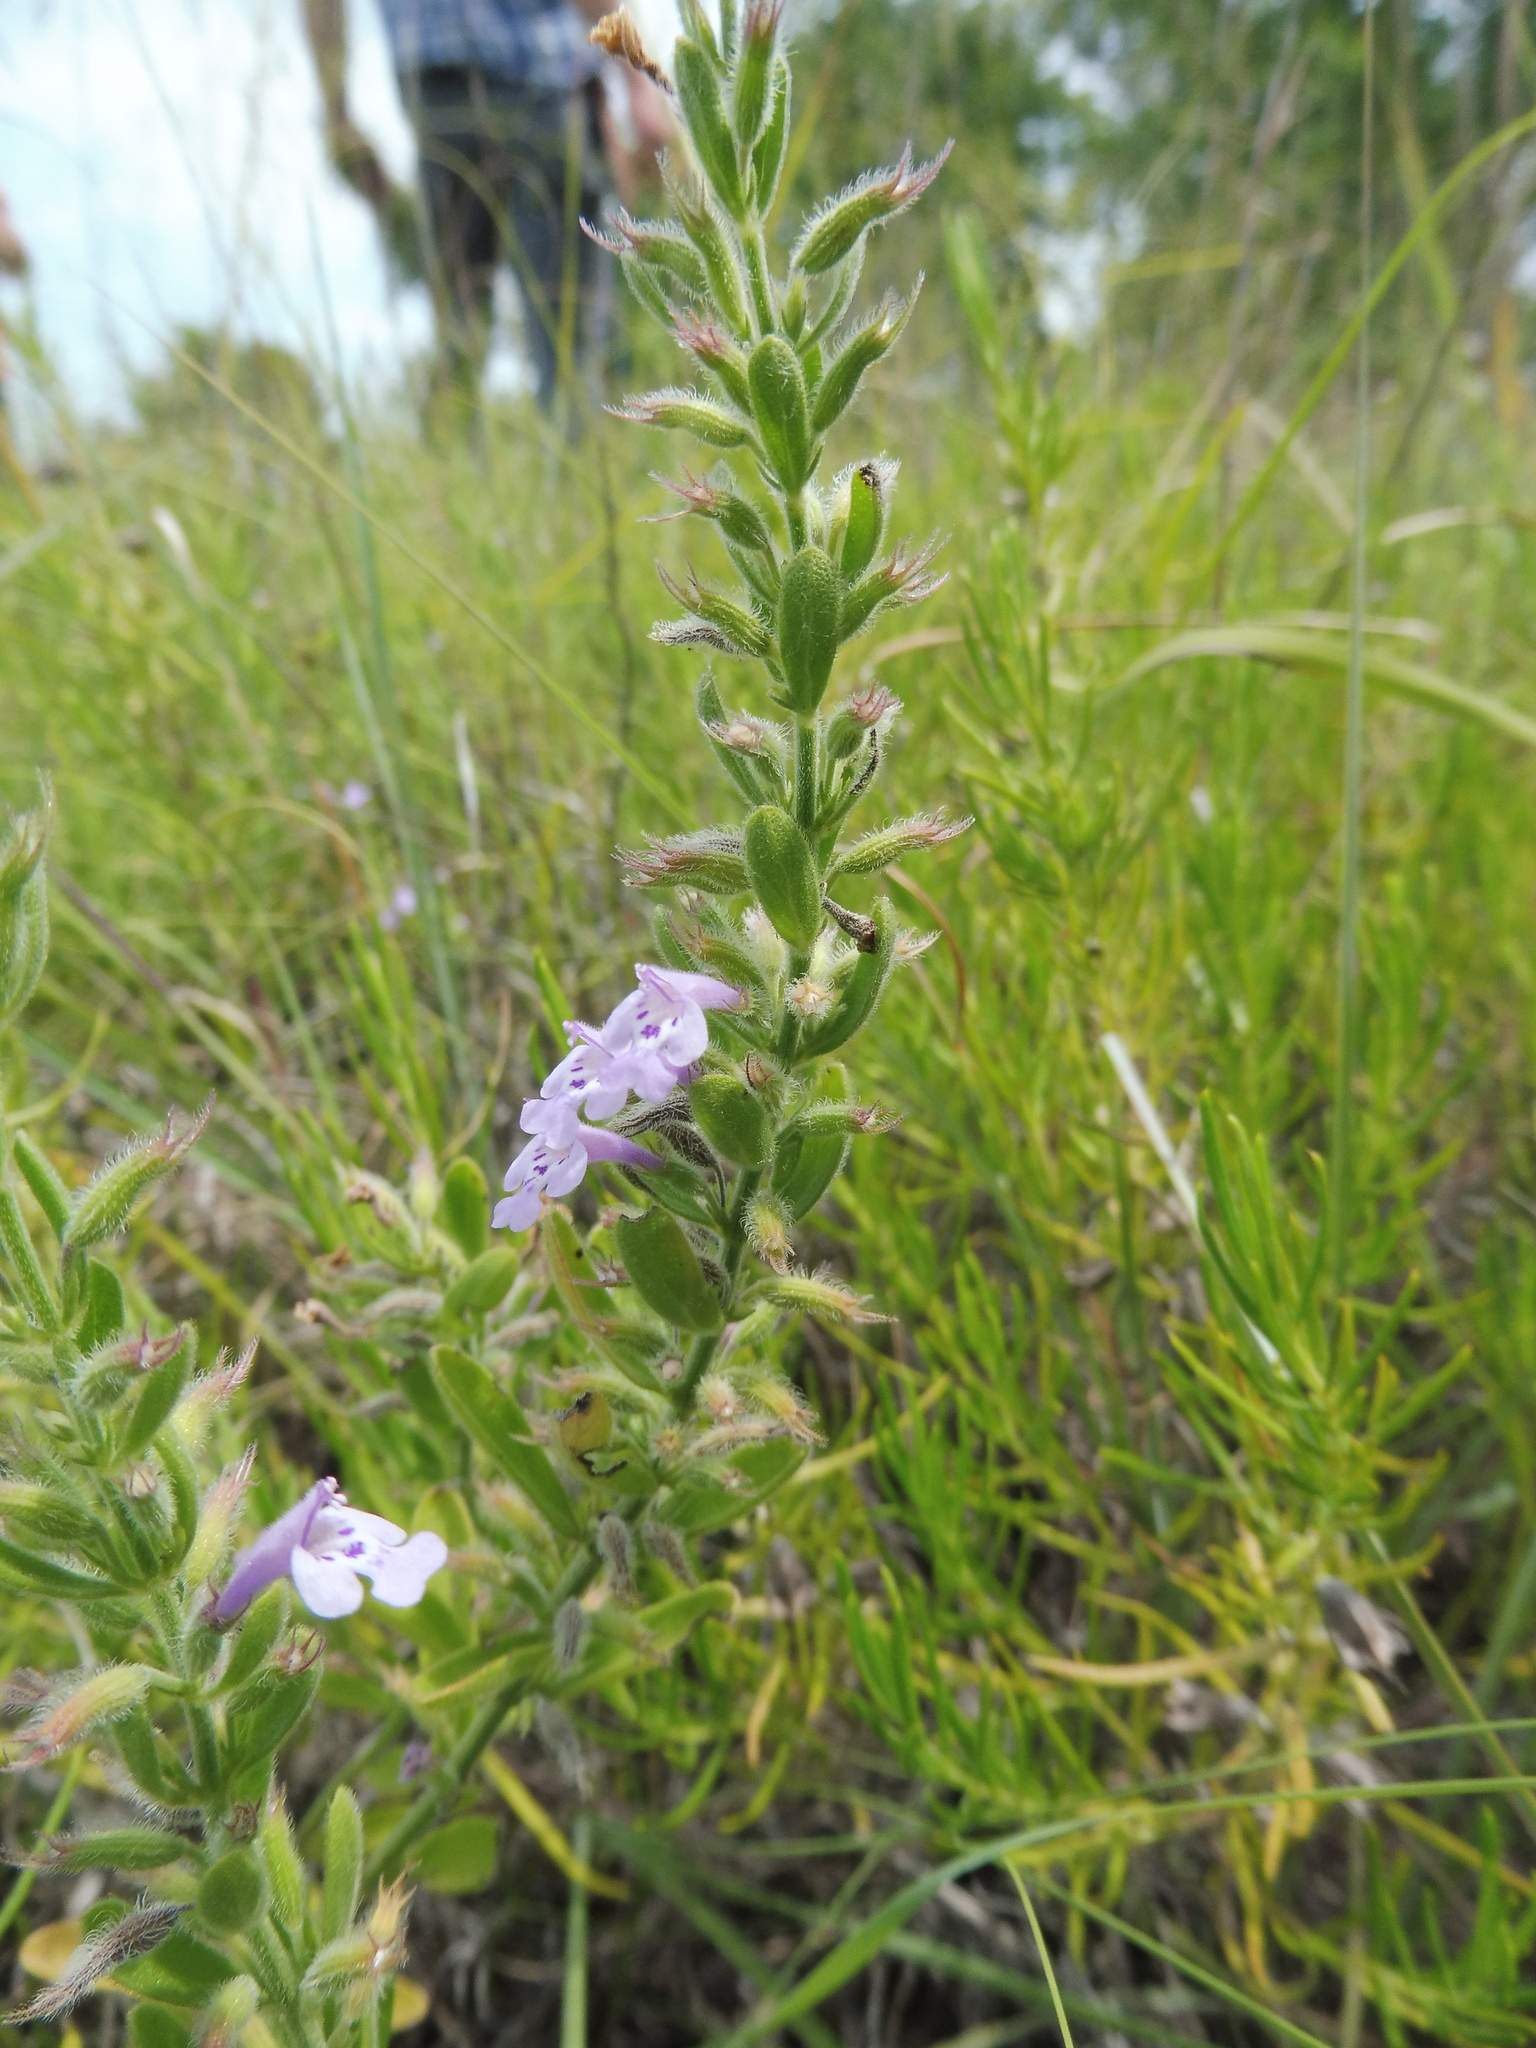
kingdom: Plantae
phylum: Tracheophyta
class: Magnoliopsida
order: Lamiales
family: Lamiaceae
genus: Hedeoma
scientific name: Hedeoma reverchonii
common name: Reverchon's false penny-royal
